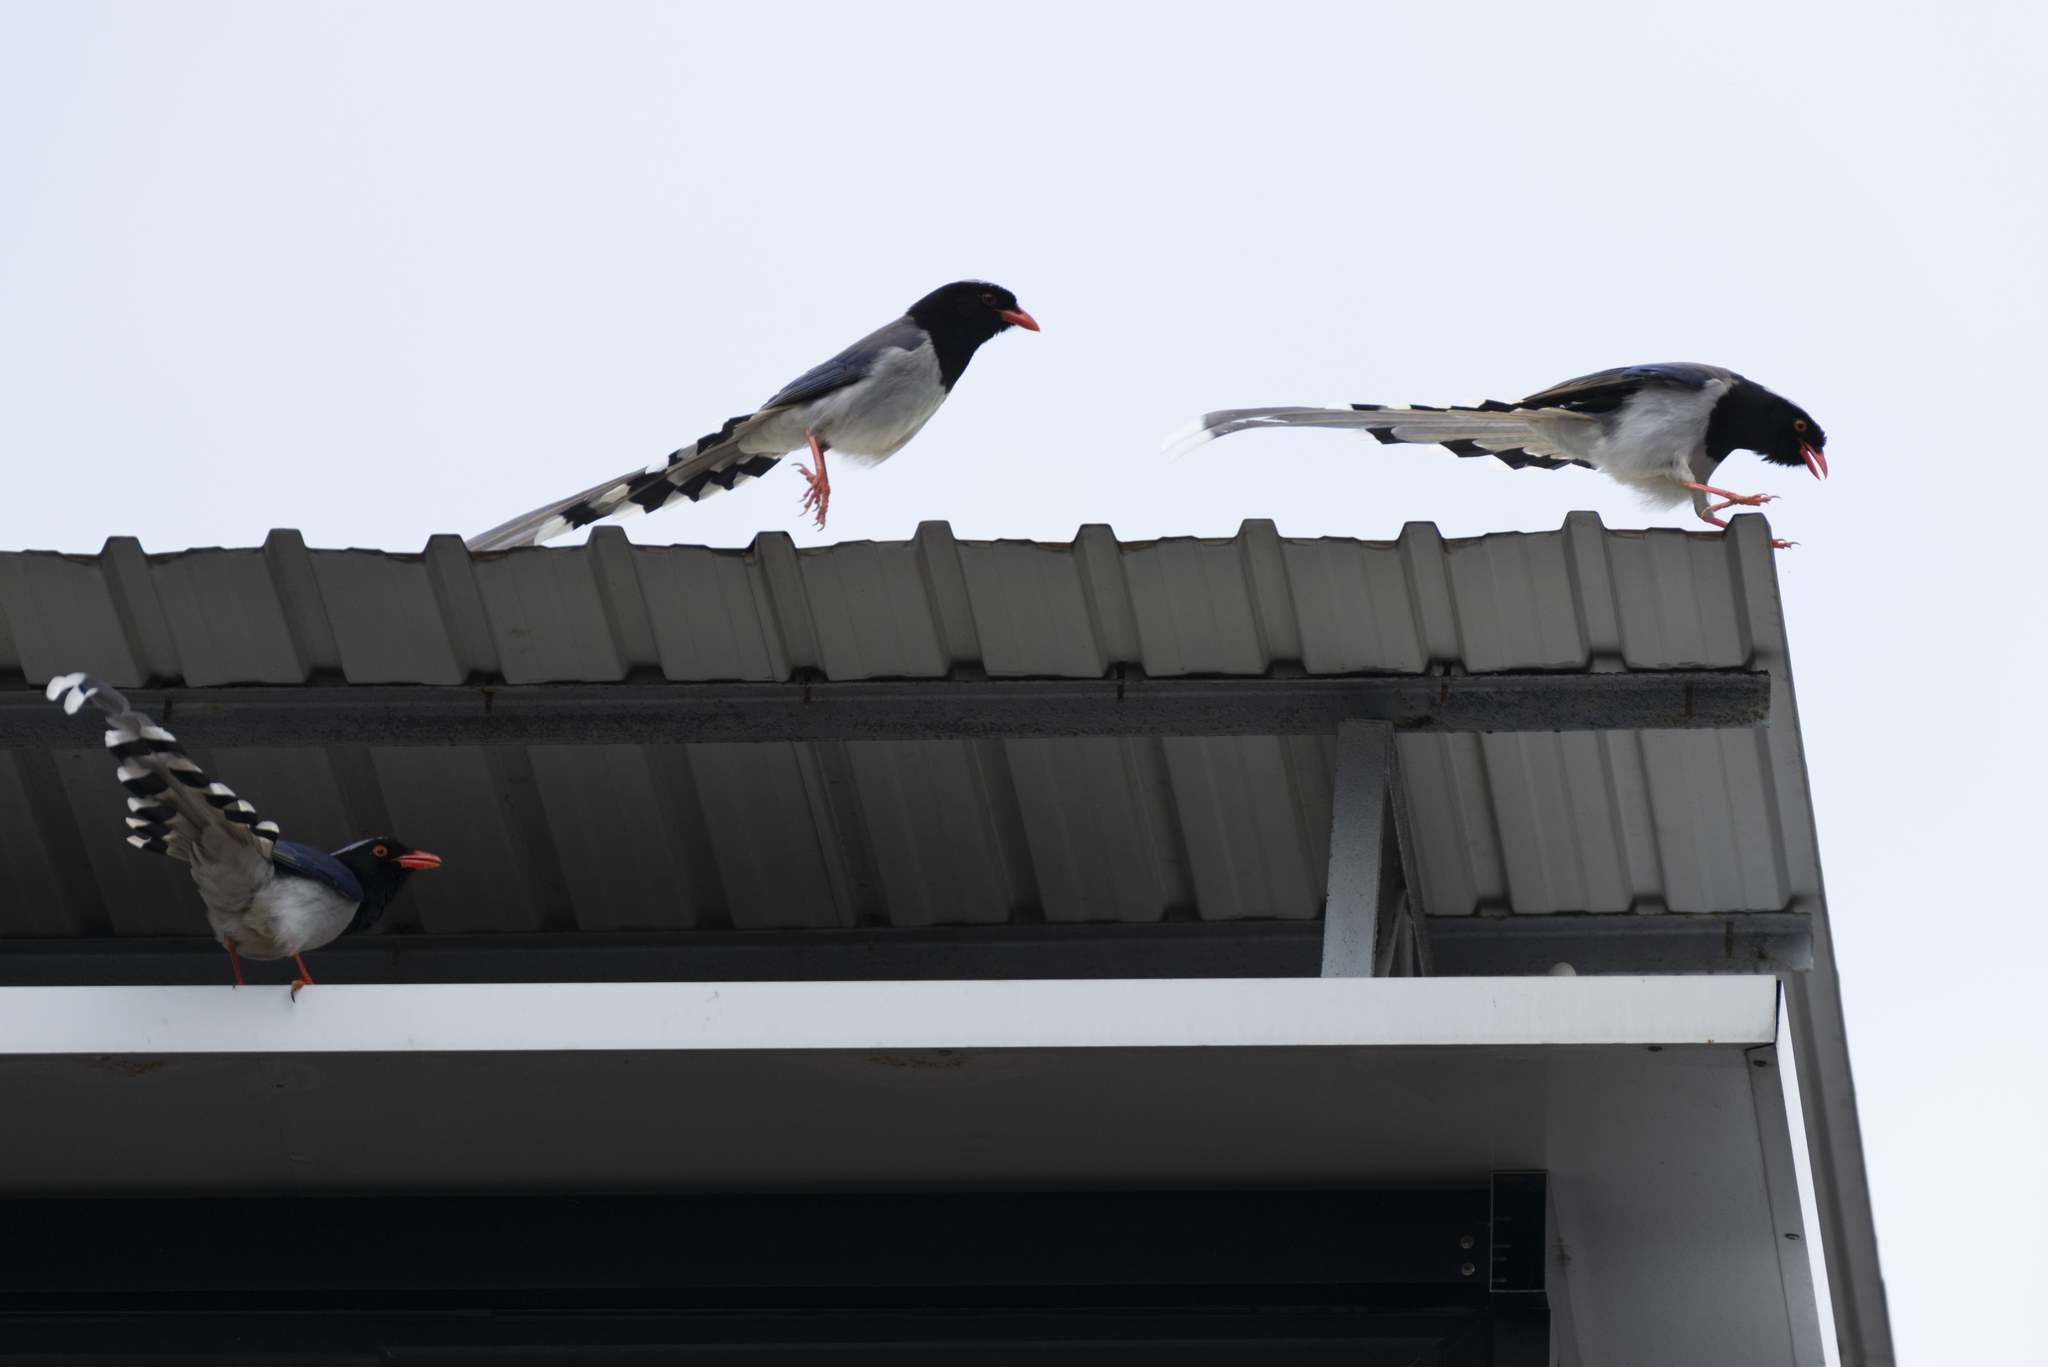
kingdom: Animalia
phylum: Chordata
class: Aves
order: Passeriformes
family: Corvidae
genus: Urocissa
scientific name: Urocissa erythroryncha
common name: Red-billed blue magpie
